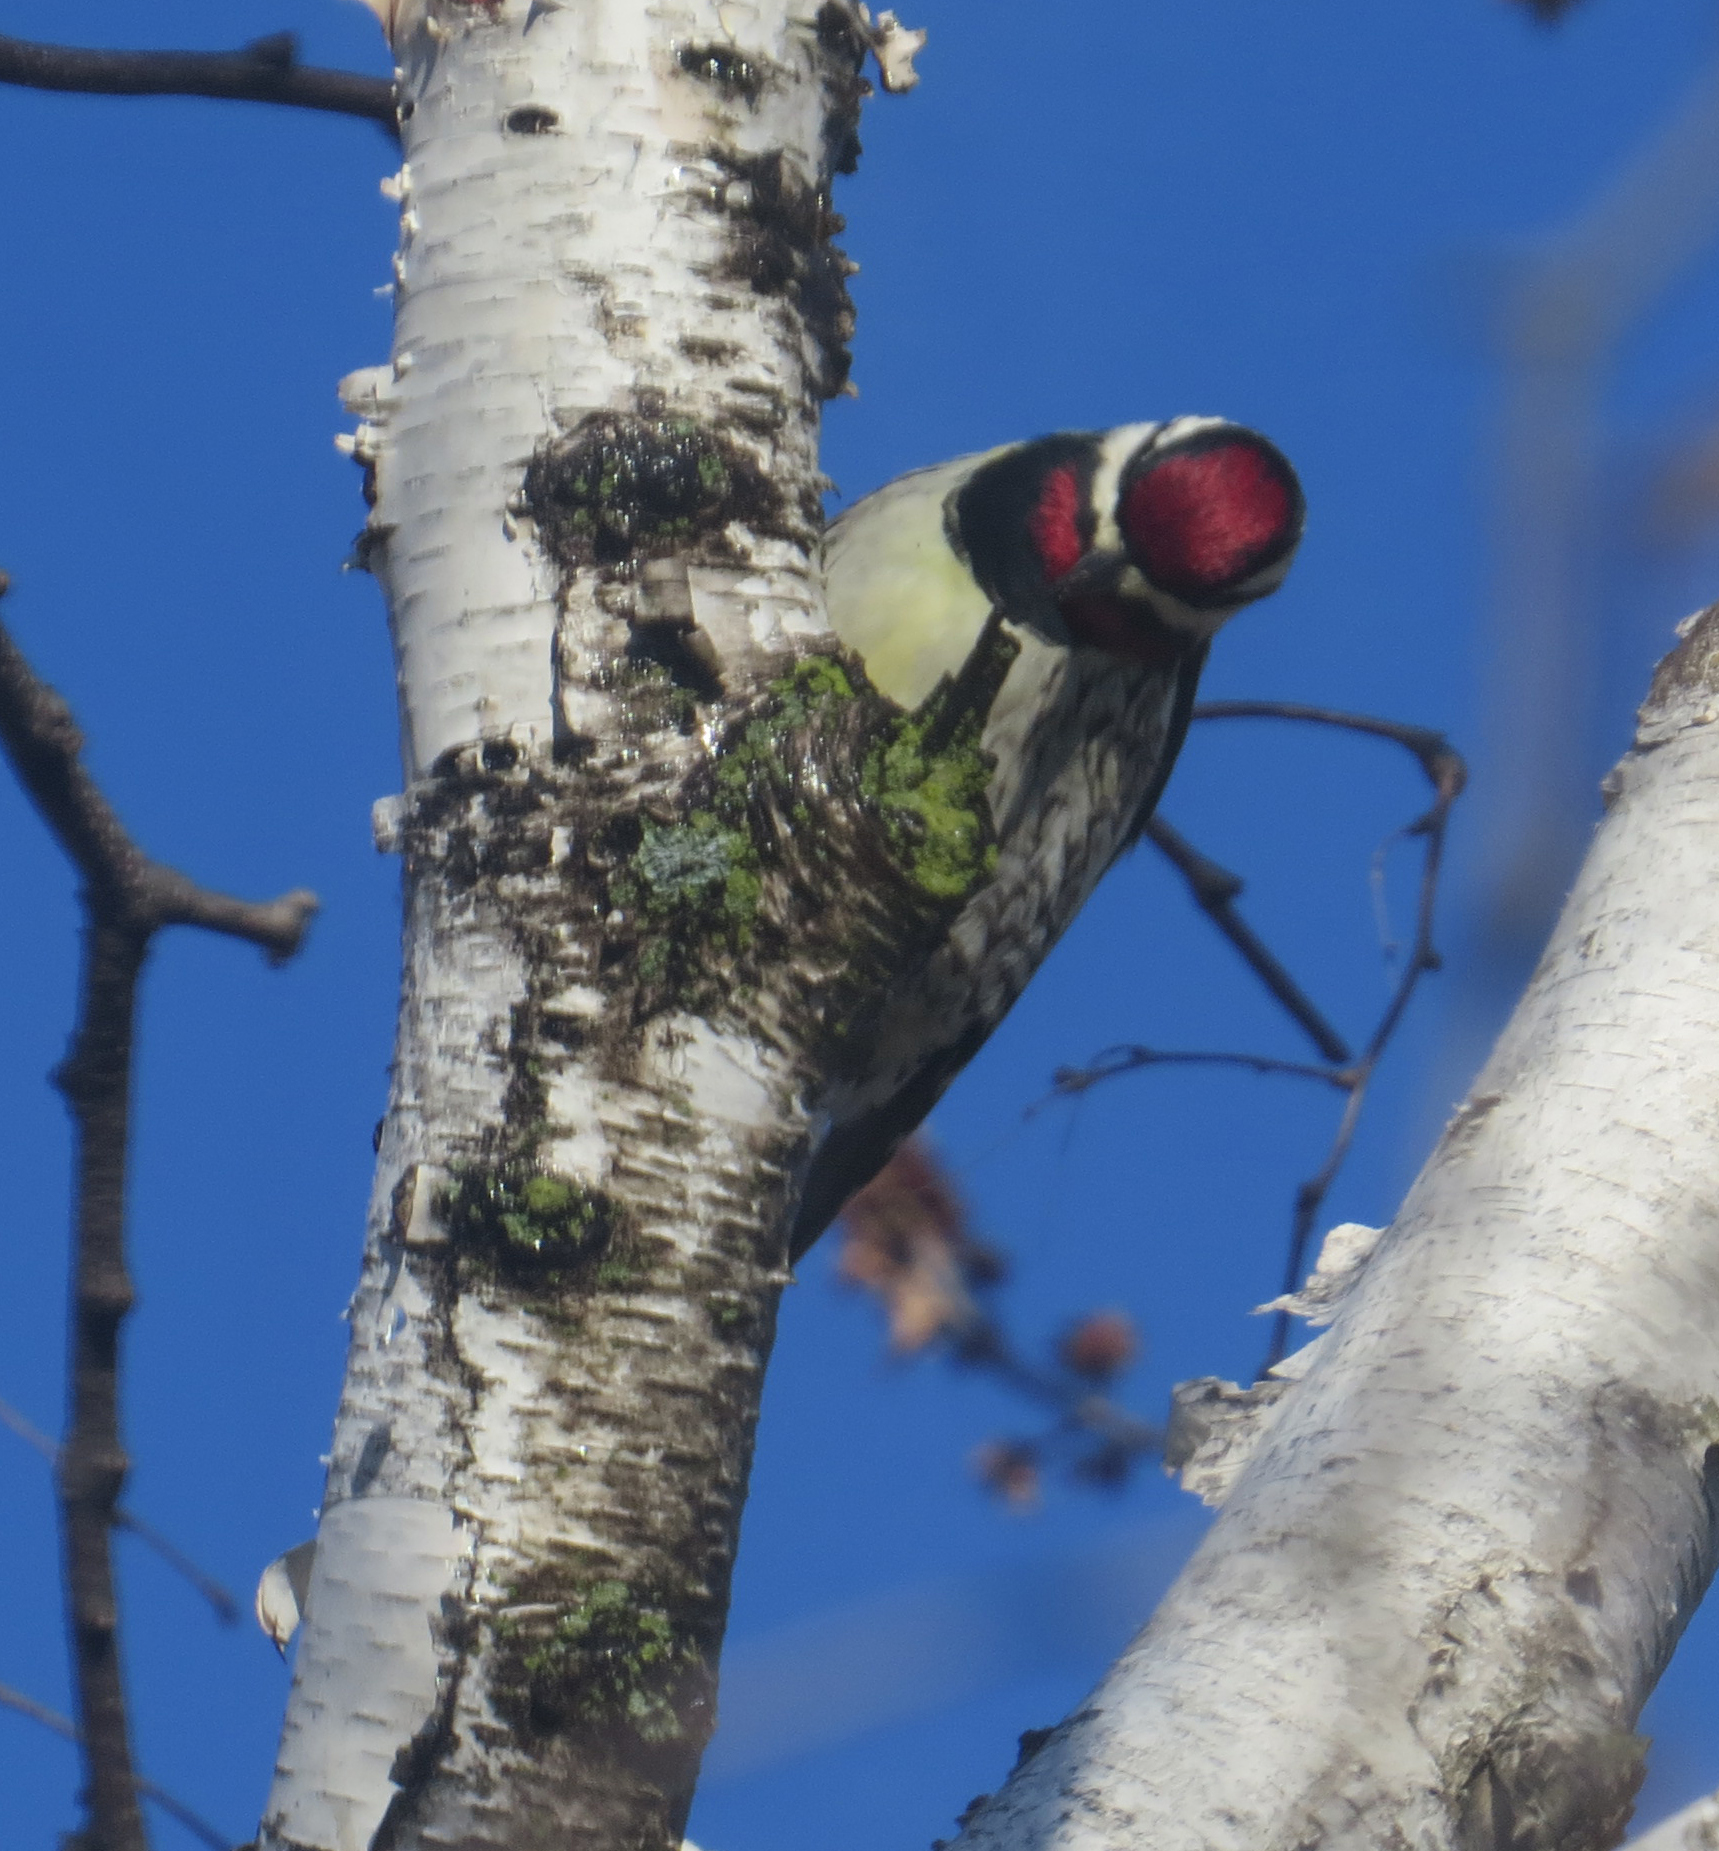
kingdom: Animalia
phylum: Chordata
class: Aves
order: Piciformes
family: Picidae
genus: Sphyrapicus
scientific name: Sphyrapicus varius
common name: Yellow-bellied sapsucker
